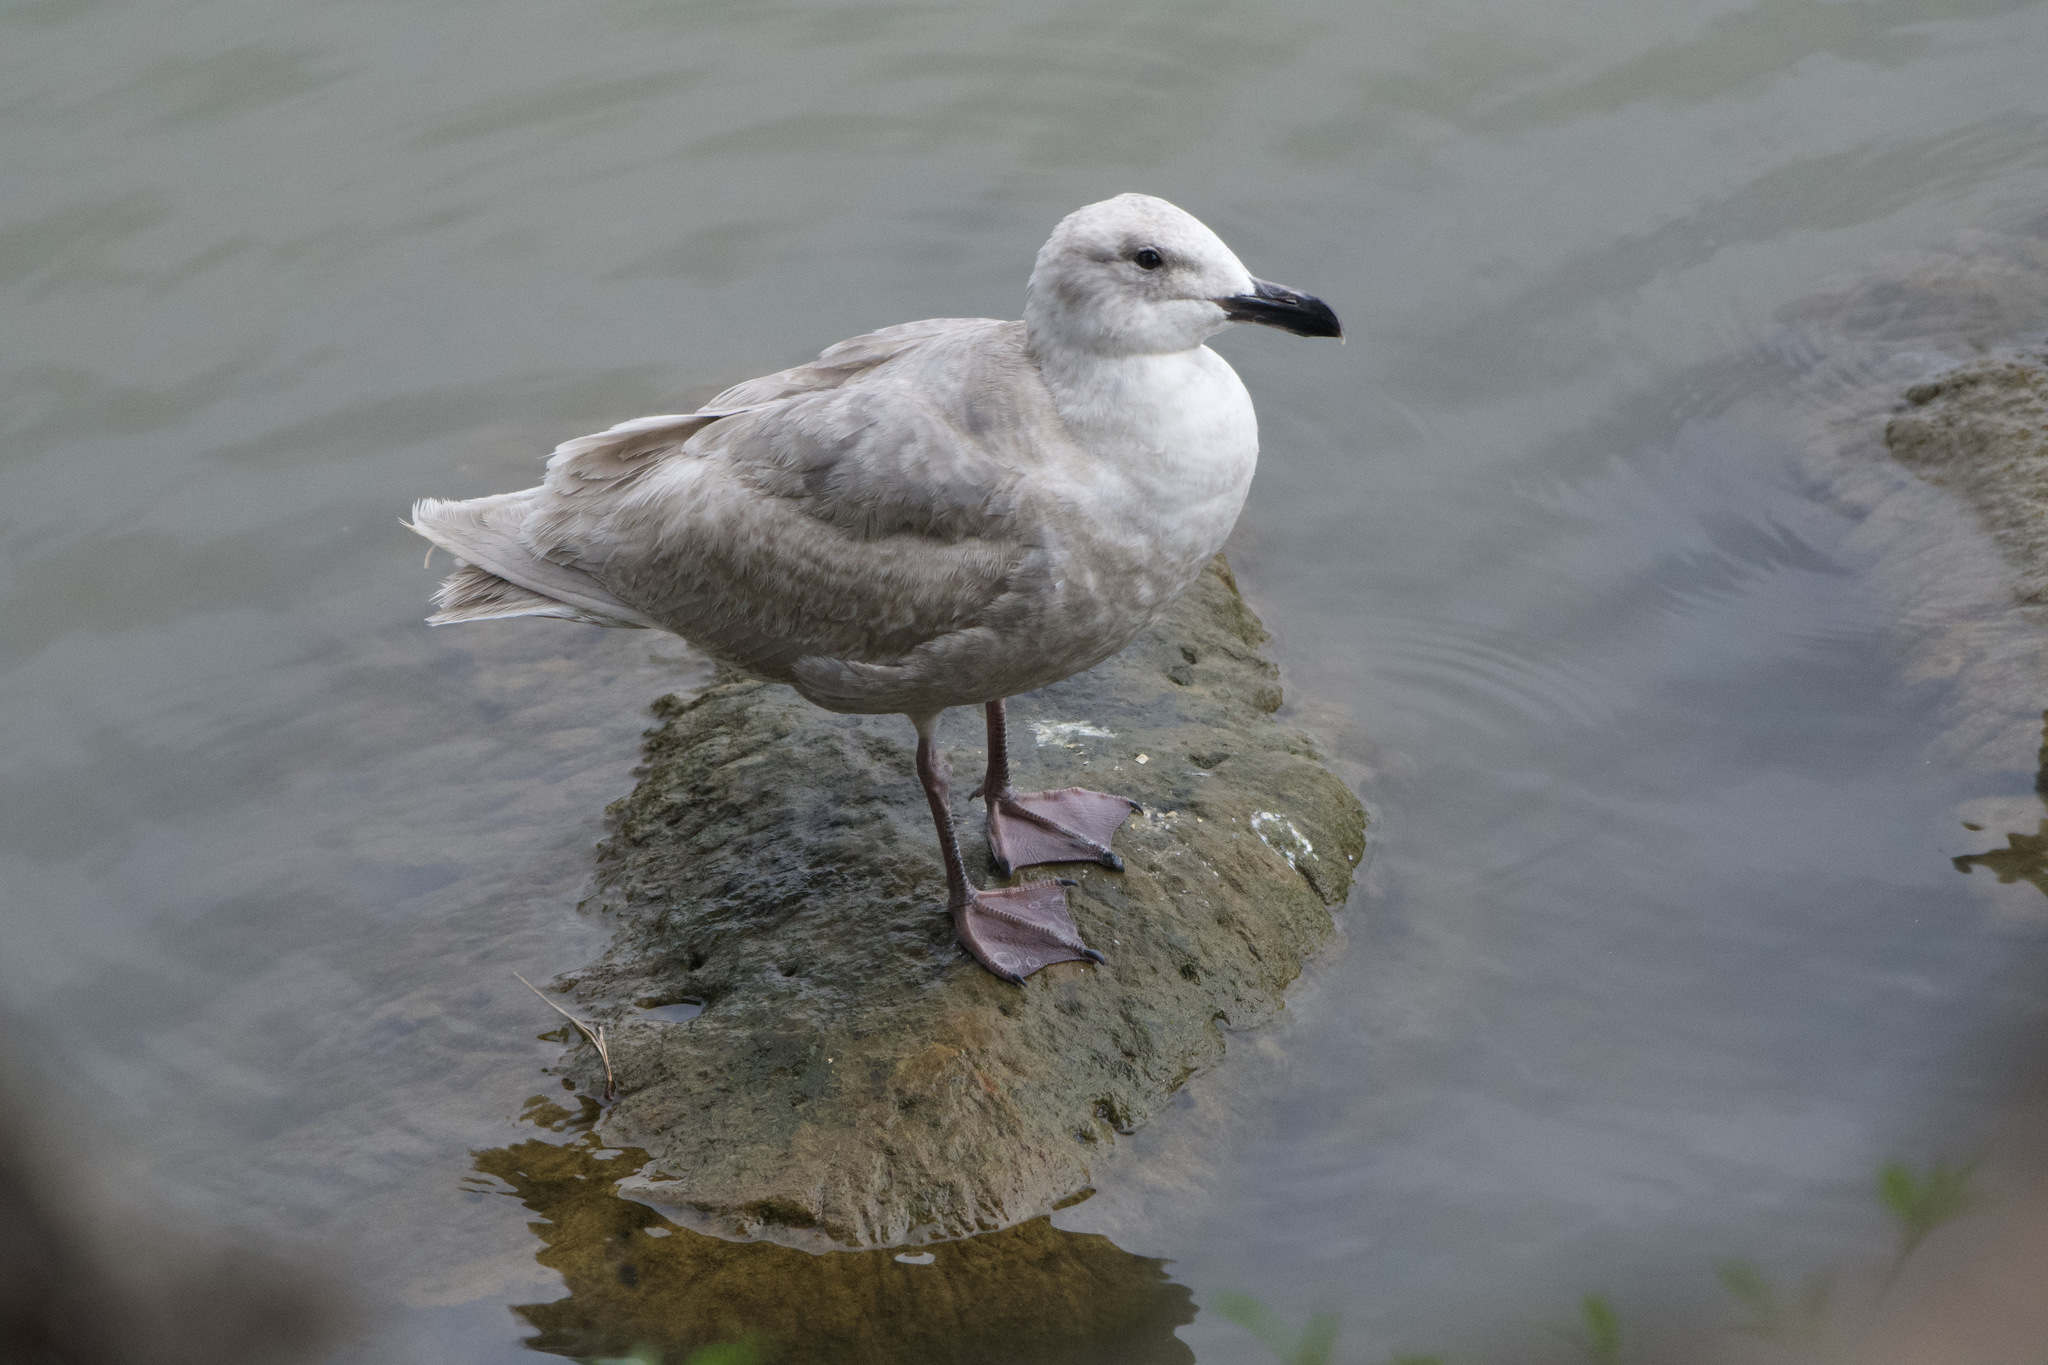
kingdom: Animalia
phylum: Chordata
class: Aves
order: Charadriiformes
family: Laridae
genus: Larus
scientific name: Larus glaucescens
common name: Glaucous-winged gull
